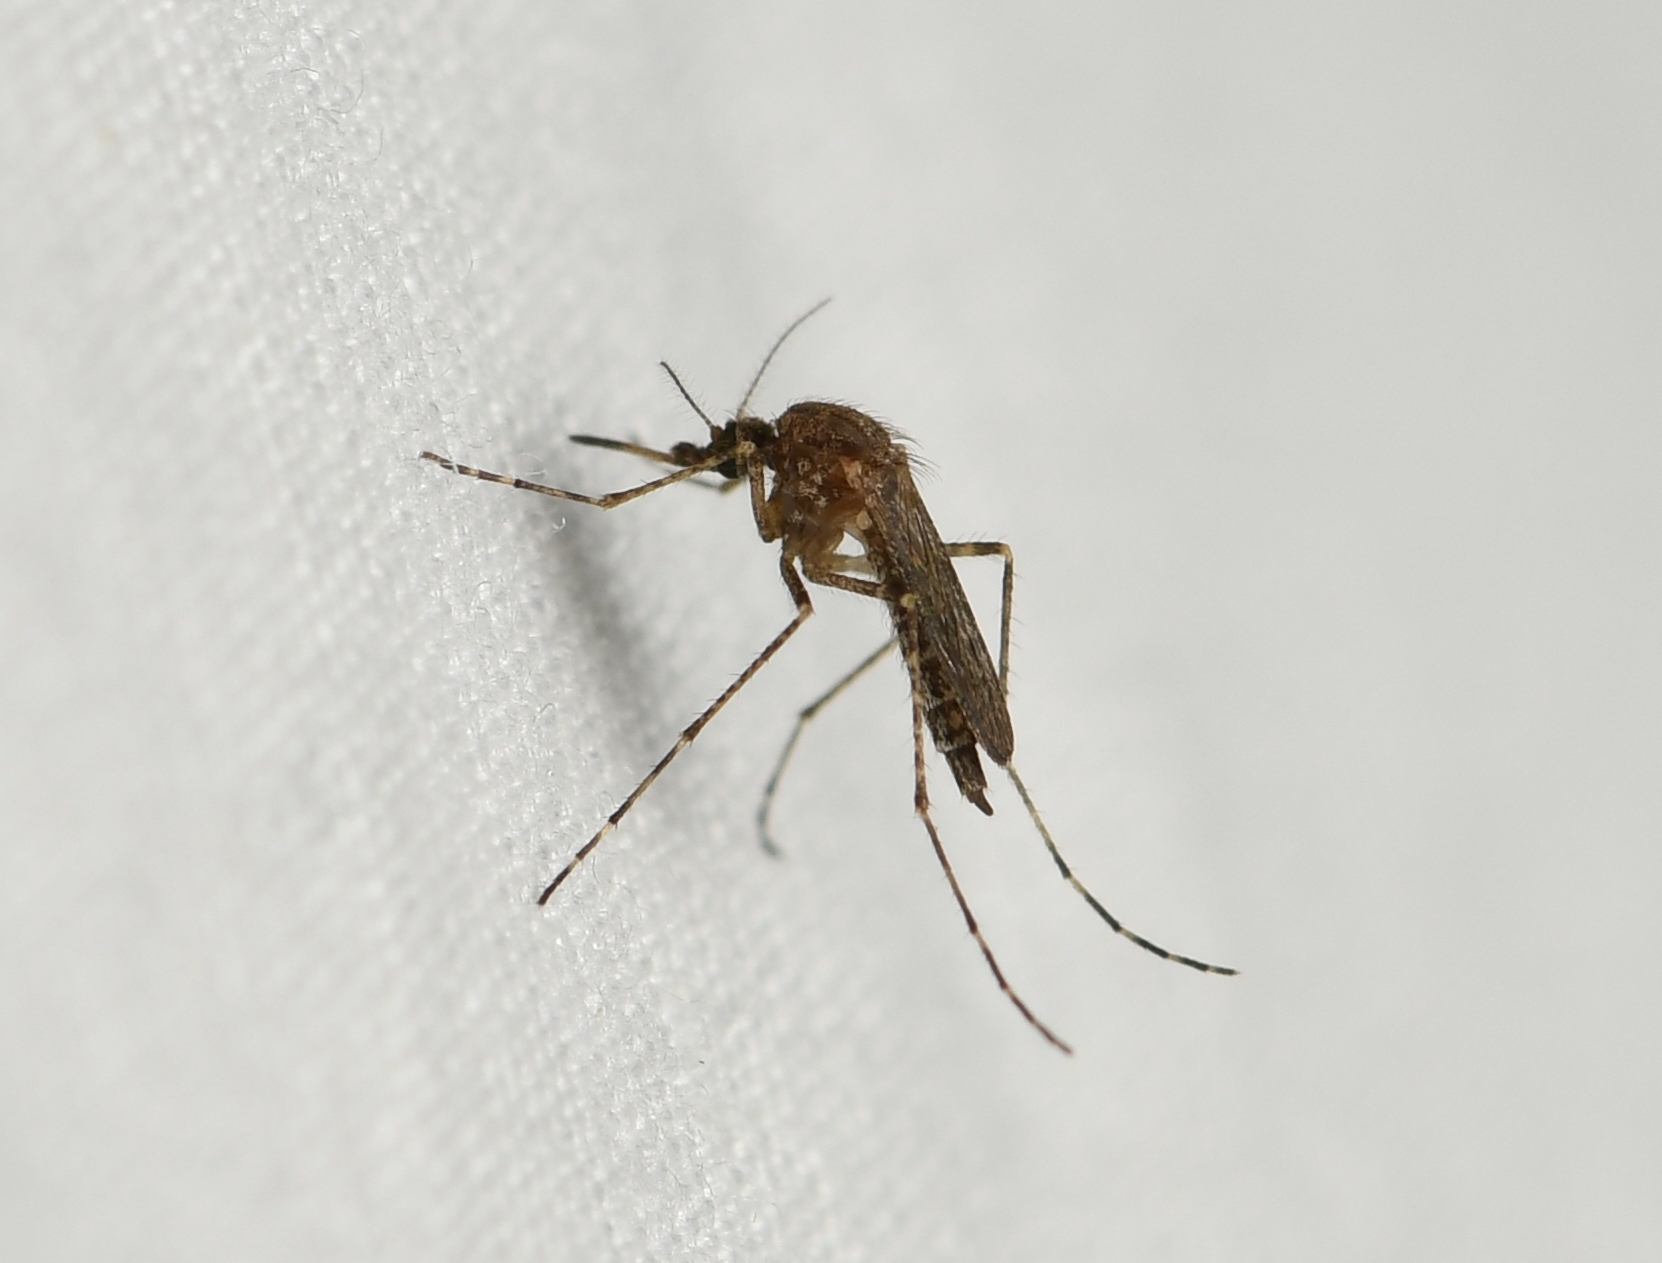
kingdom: Animalia
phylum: Arthropoda
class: Insecta
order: Diptera
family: Culicidae
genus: Psorophora
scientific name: Psorophora columbiae
